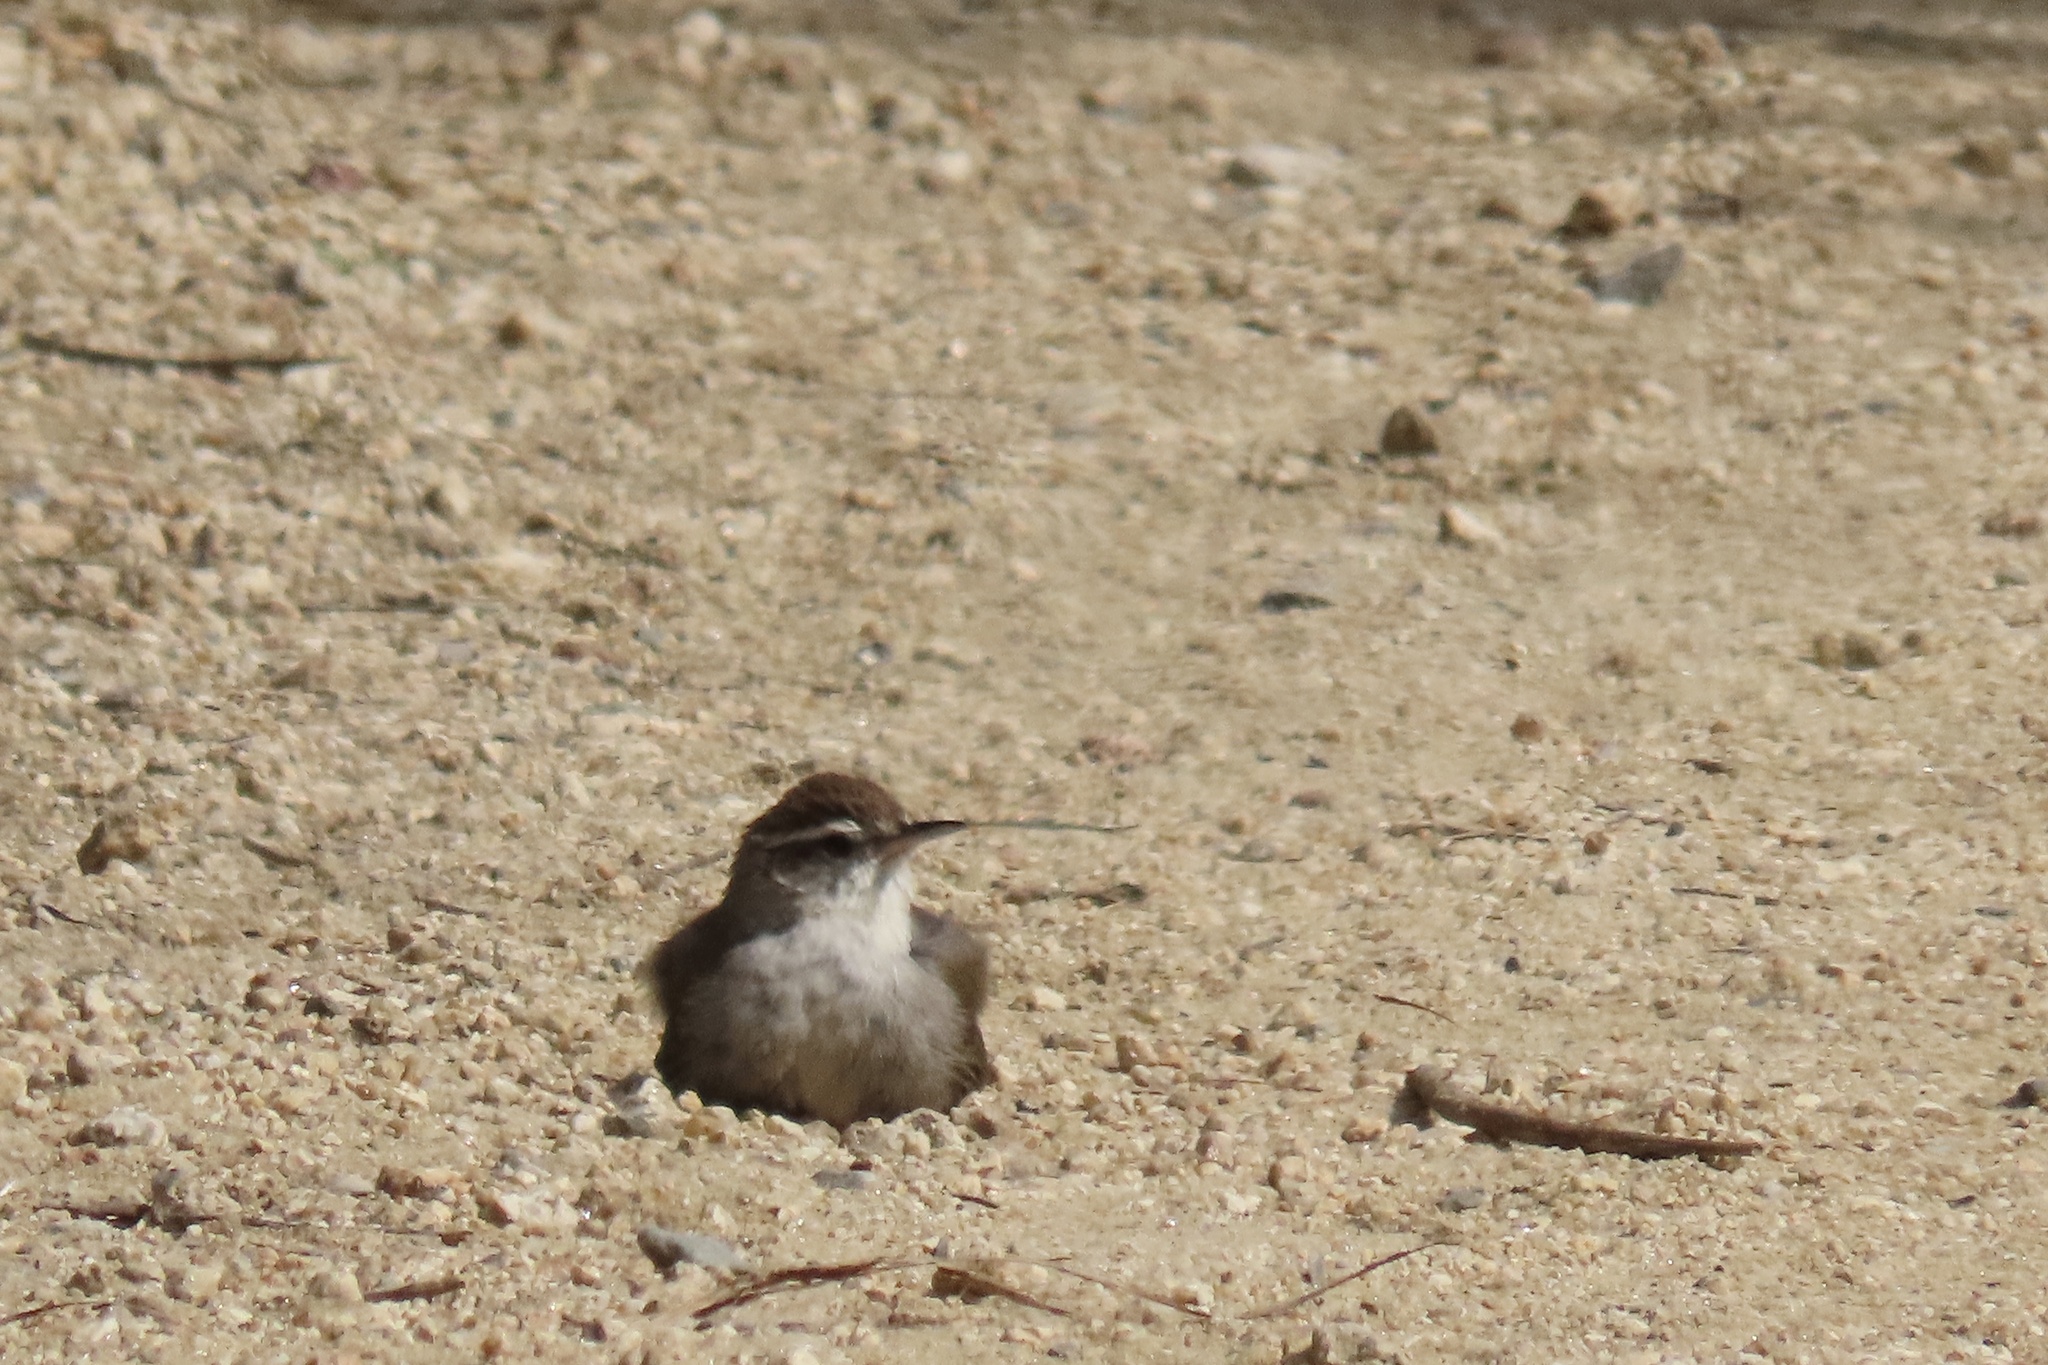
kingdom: Animalia
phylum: Chordata
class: Aves
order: Passeriformes
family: Troglodytidae
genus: Thryomanes
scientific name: Thryomanes bewickii
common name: Bewick's wren
